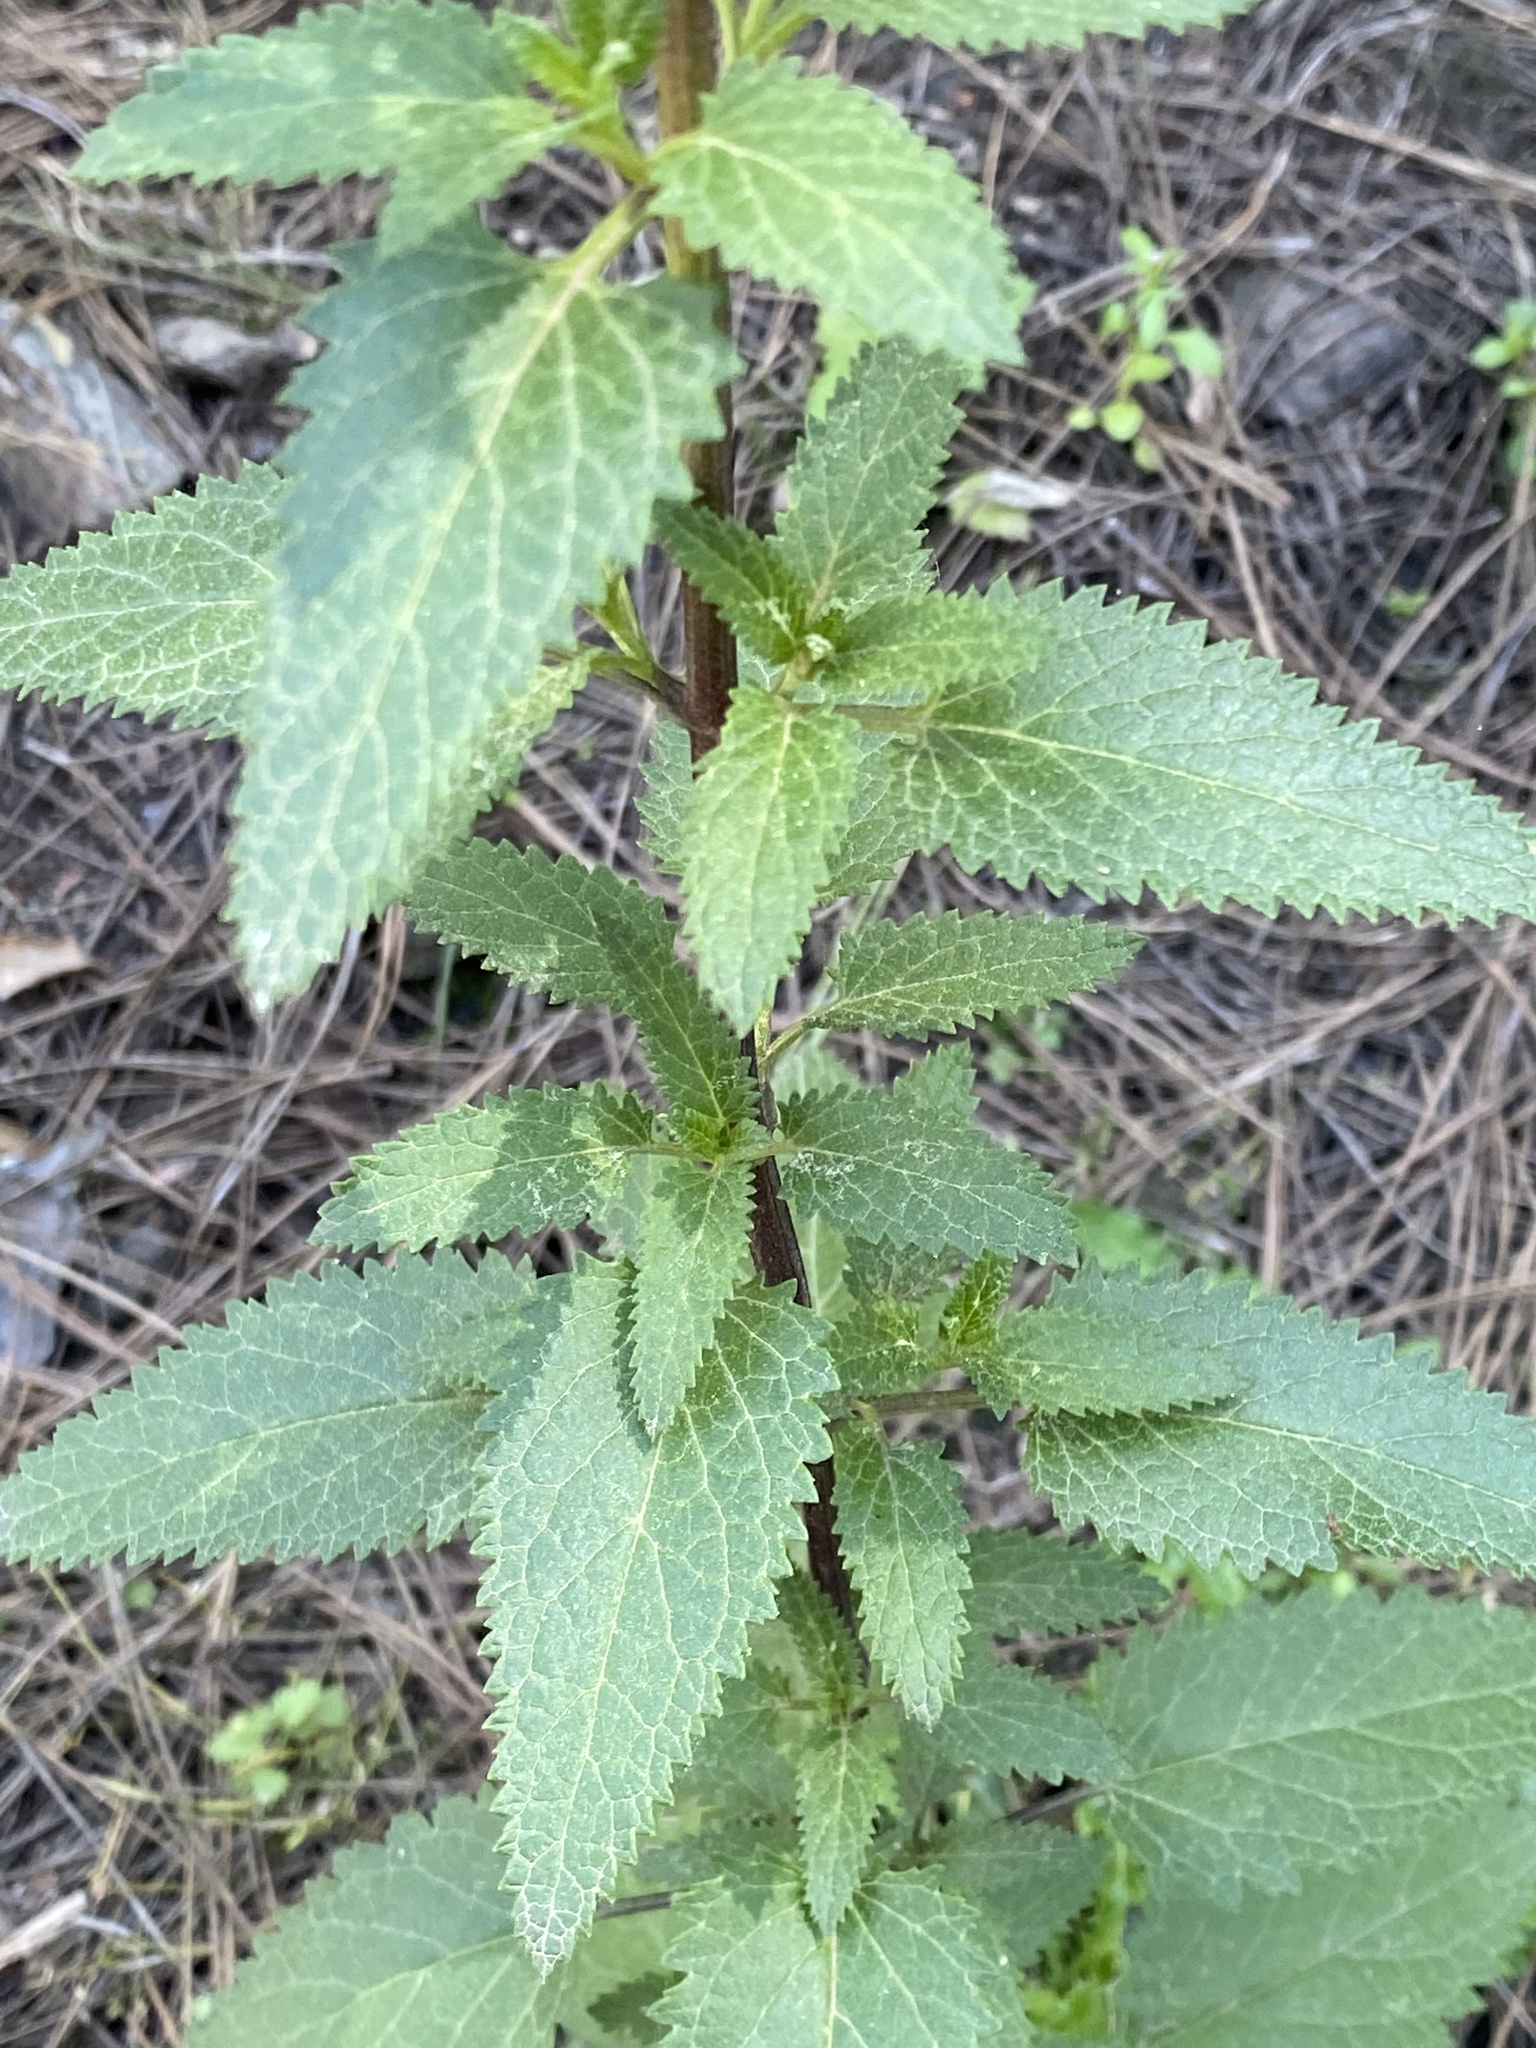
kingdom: Plantae
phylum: Tracheophyta
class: Magnoliopsida
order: Lamiales
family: Scrophulariaceae
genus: Scrophularia
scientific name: Scrophularia glabrata
